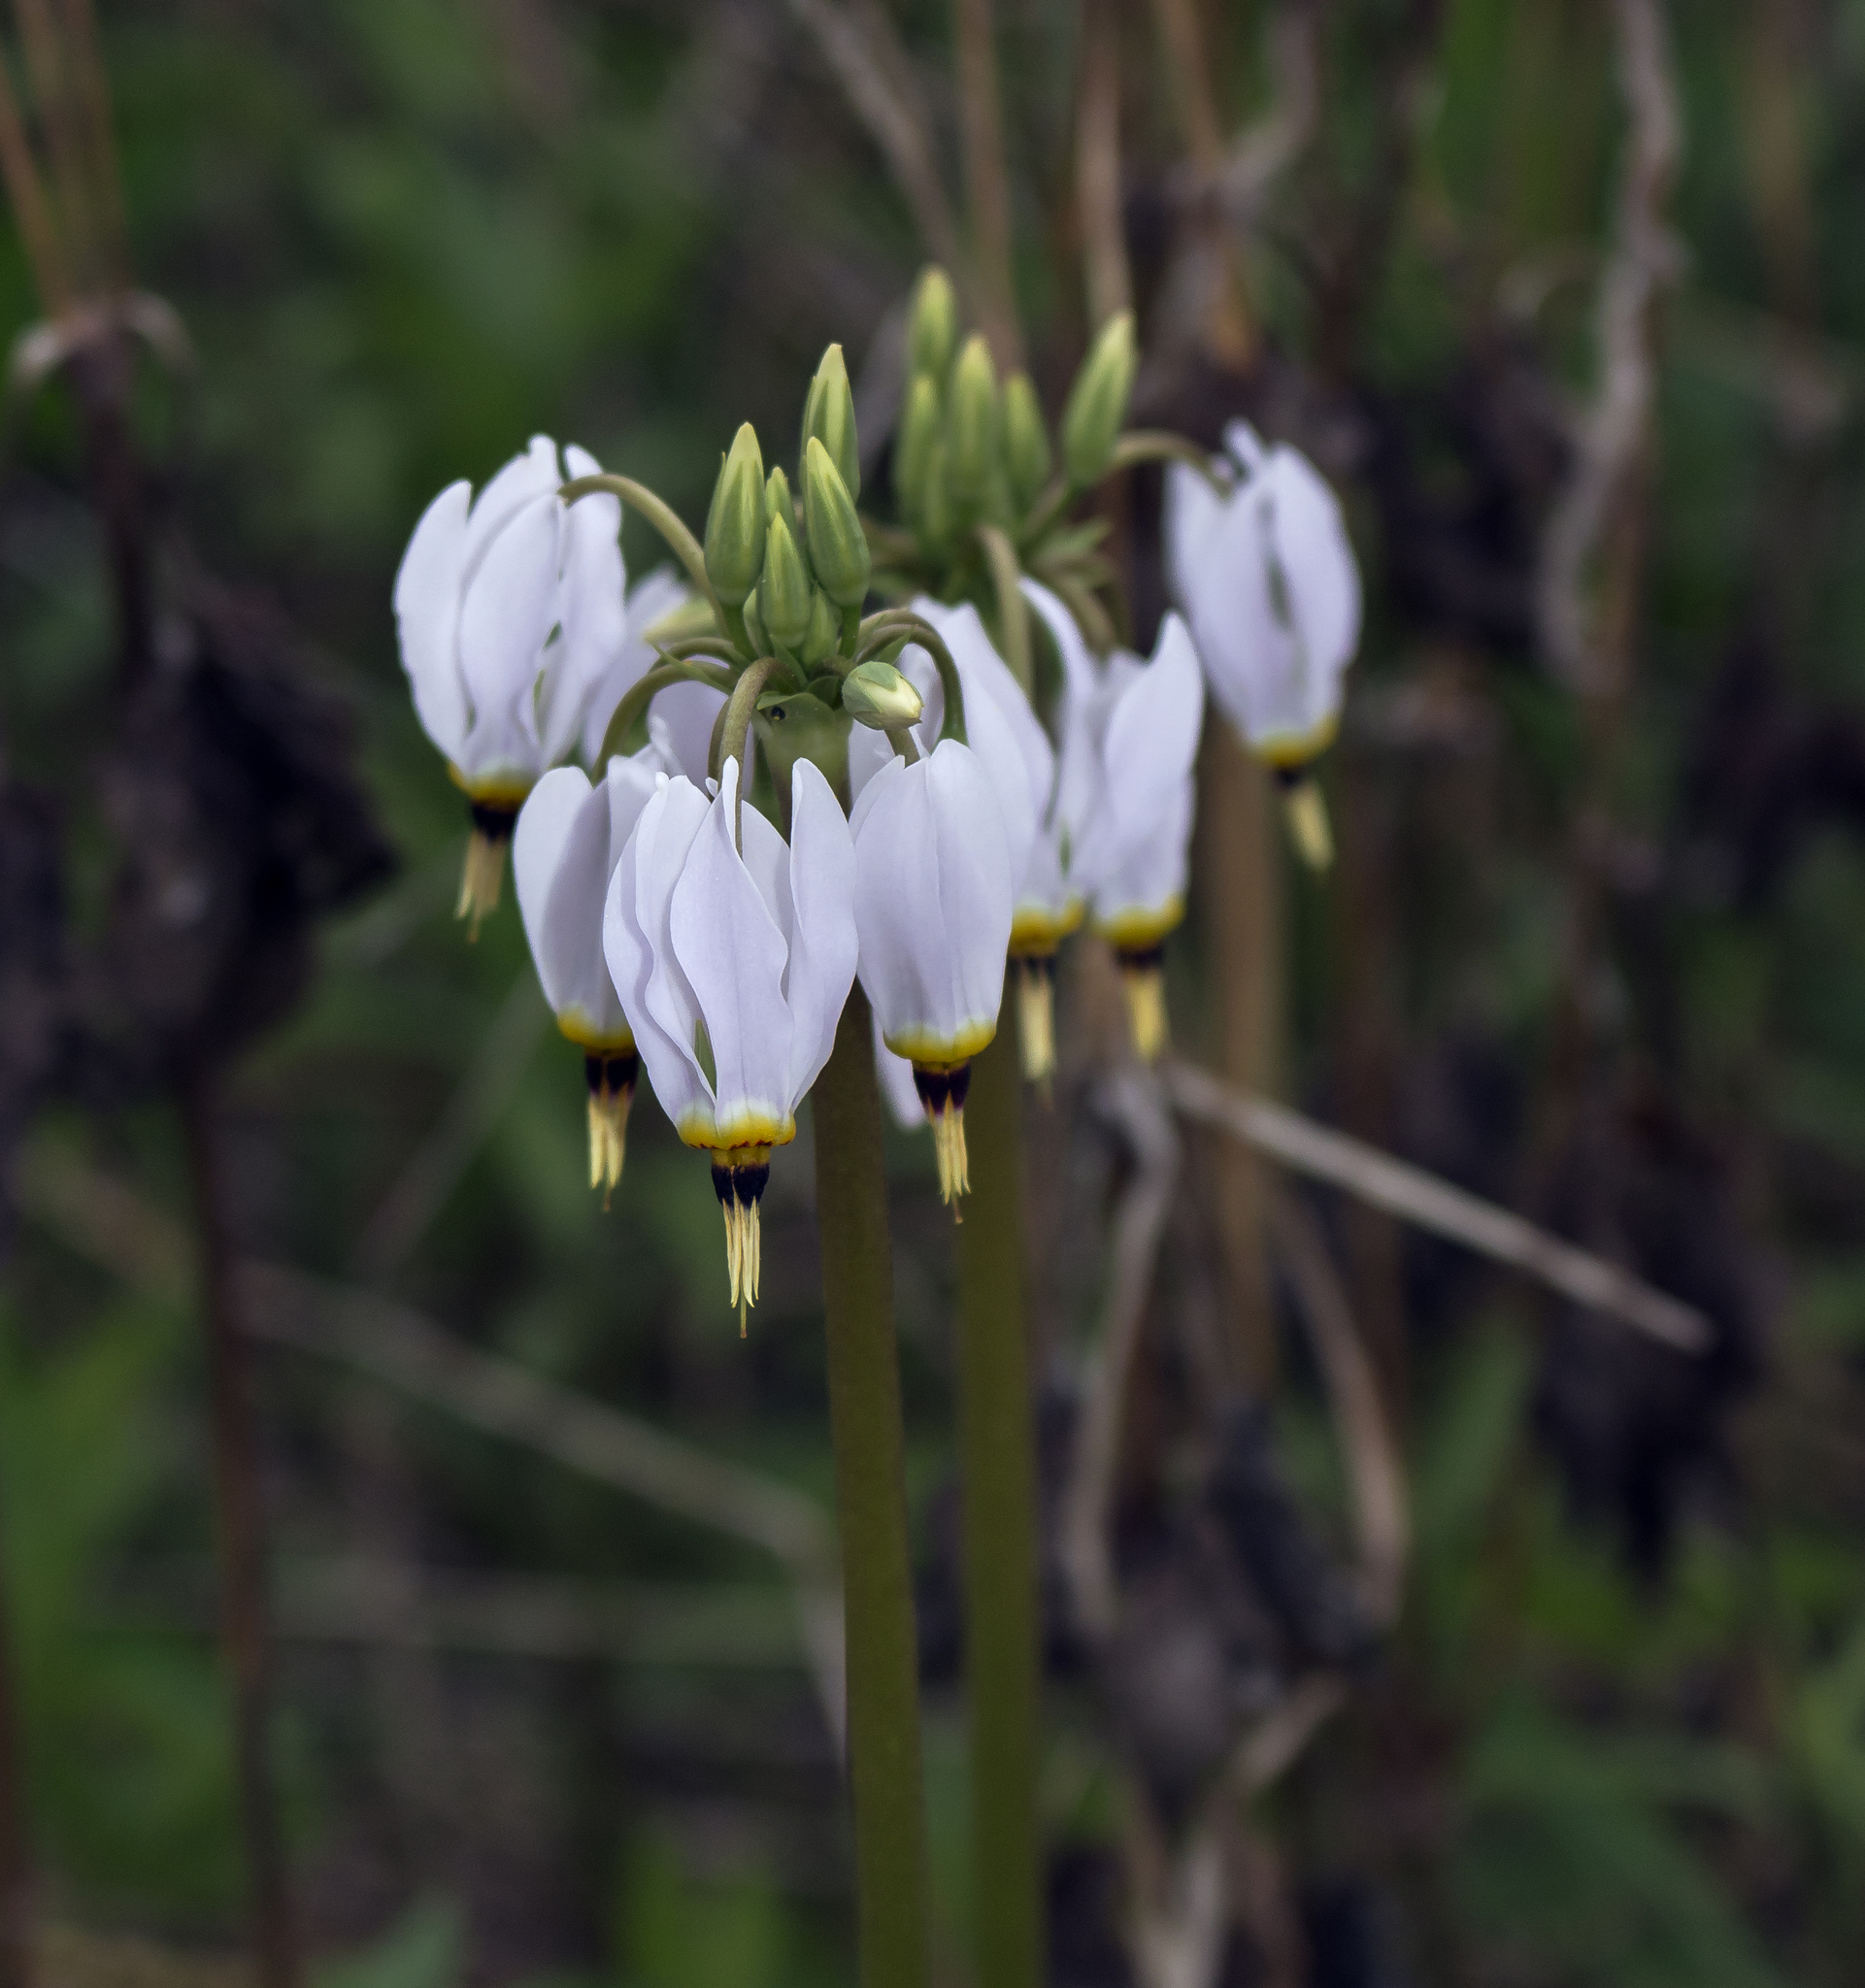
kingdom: Plantae
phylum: Tracheophyta
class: Magnoliopsida
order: Ericales
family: Primulaceae
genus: Dodecatheon
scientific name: Dodecatheon meadia
